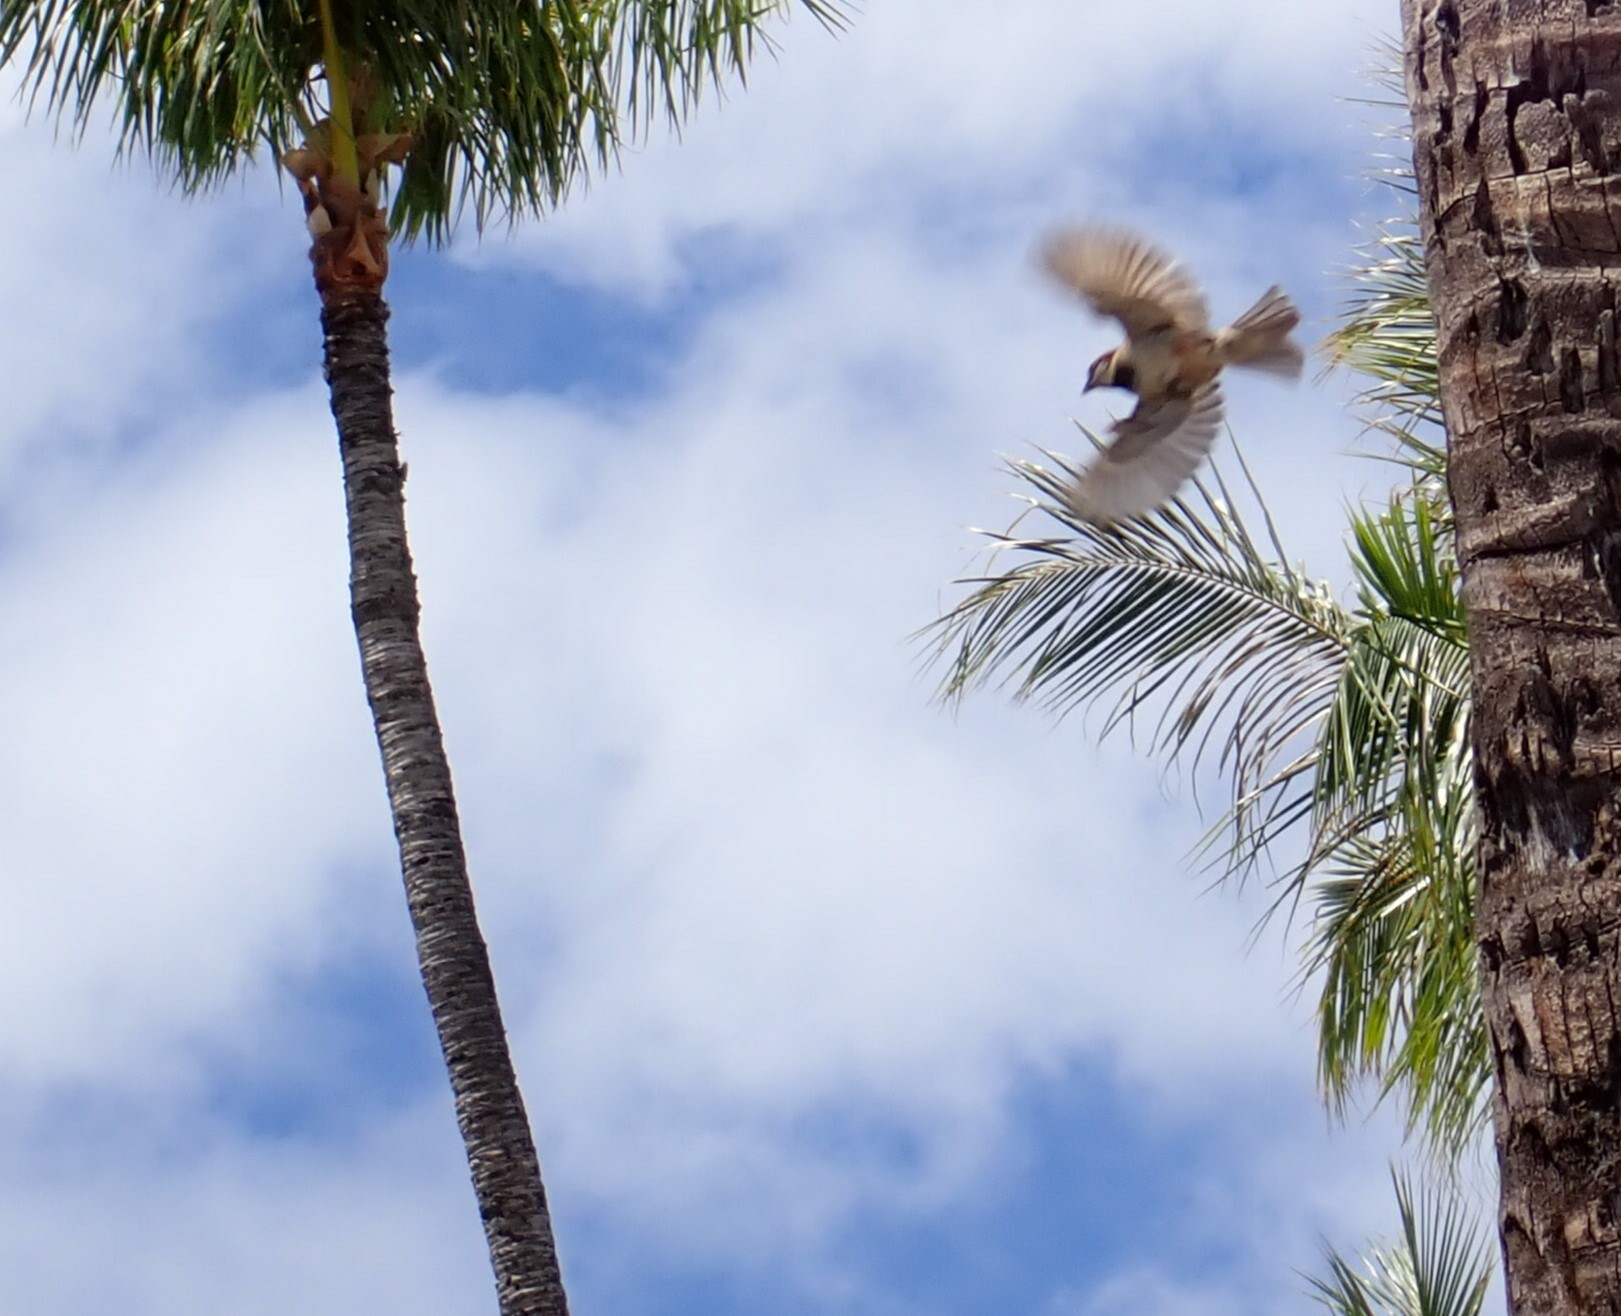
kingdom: Animalia
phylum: Chordata
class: Aves
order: Passeriformes
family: Passeridae
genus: Passer
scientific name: Passer domesticus
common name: House sparrow
